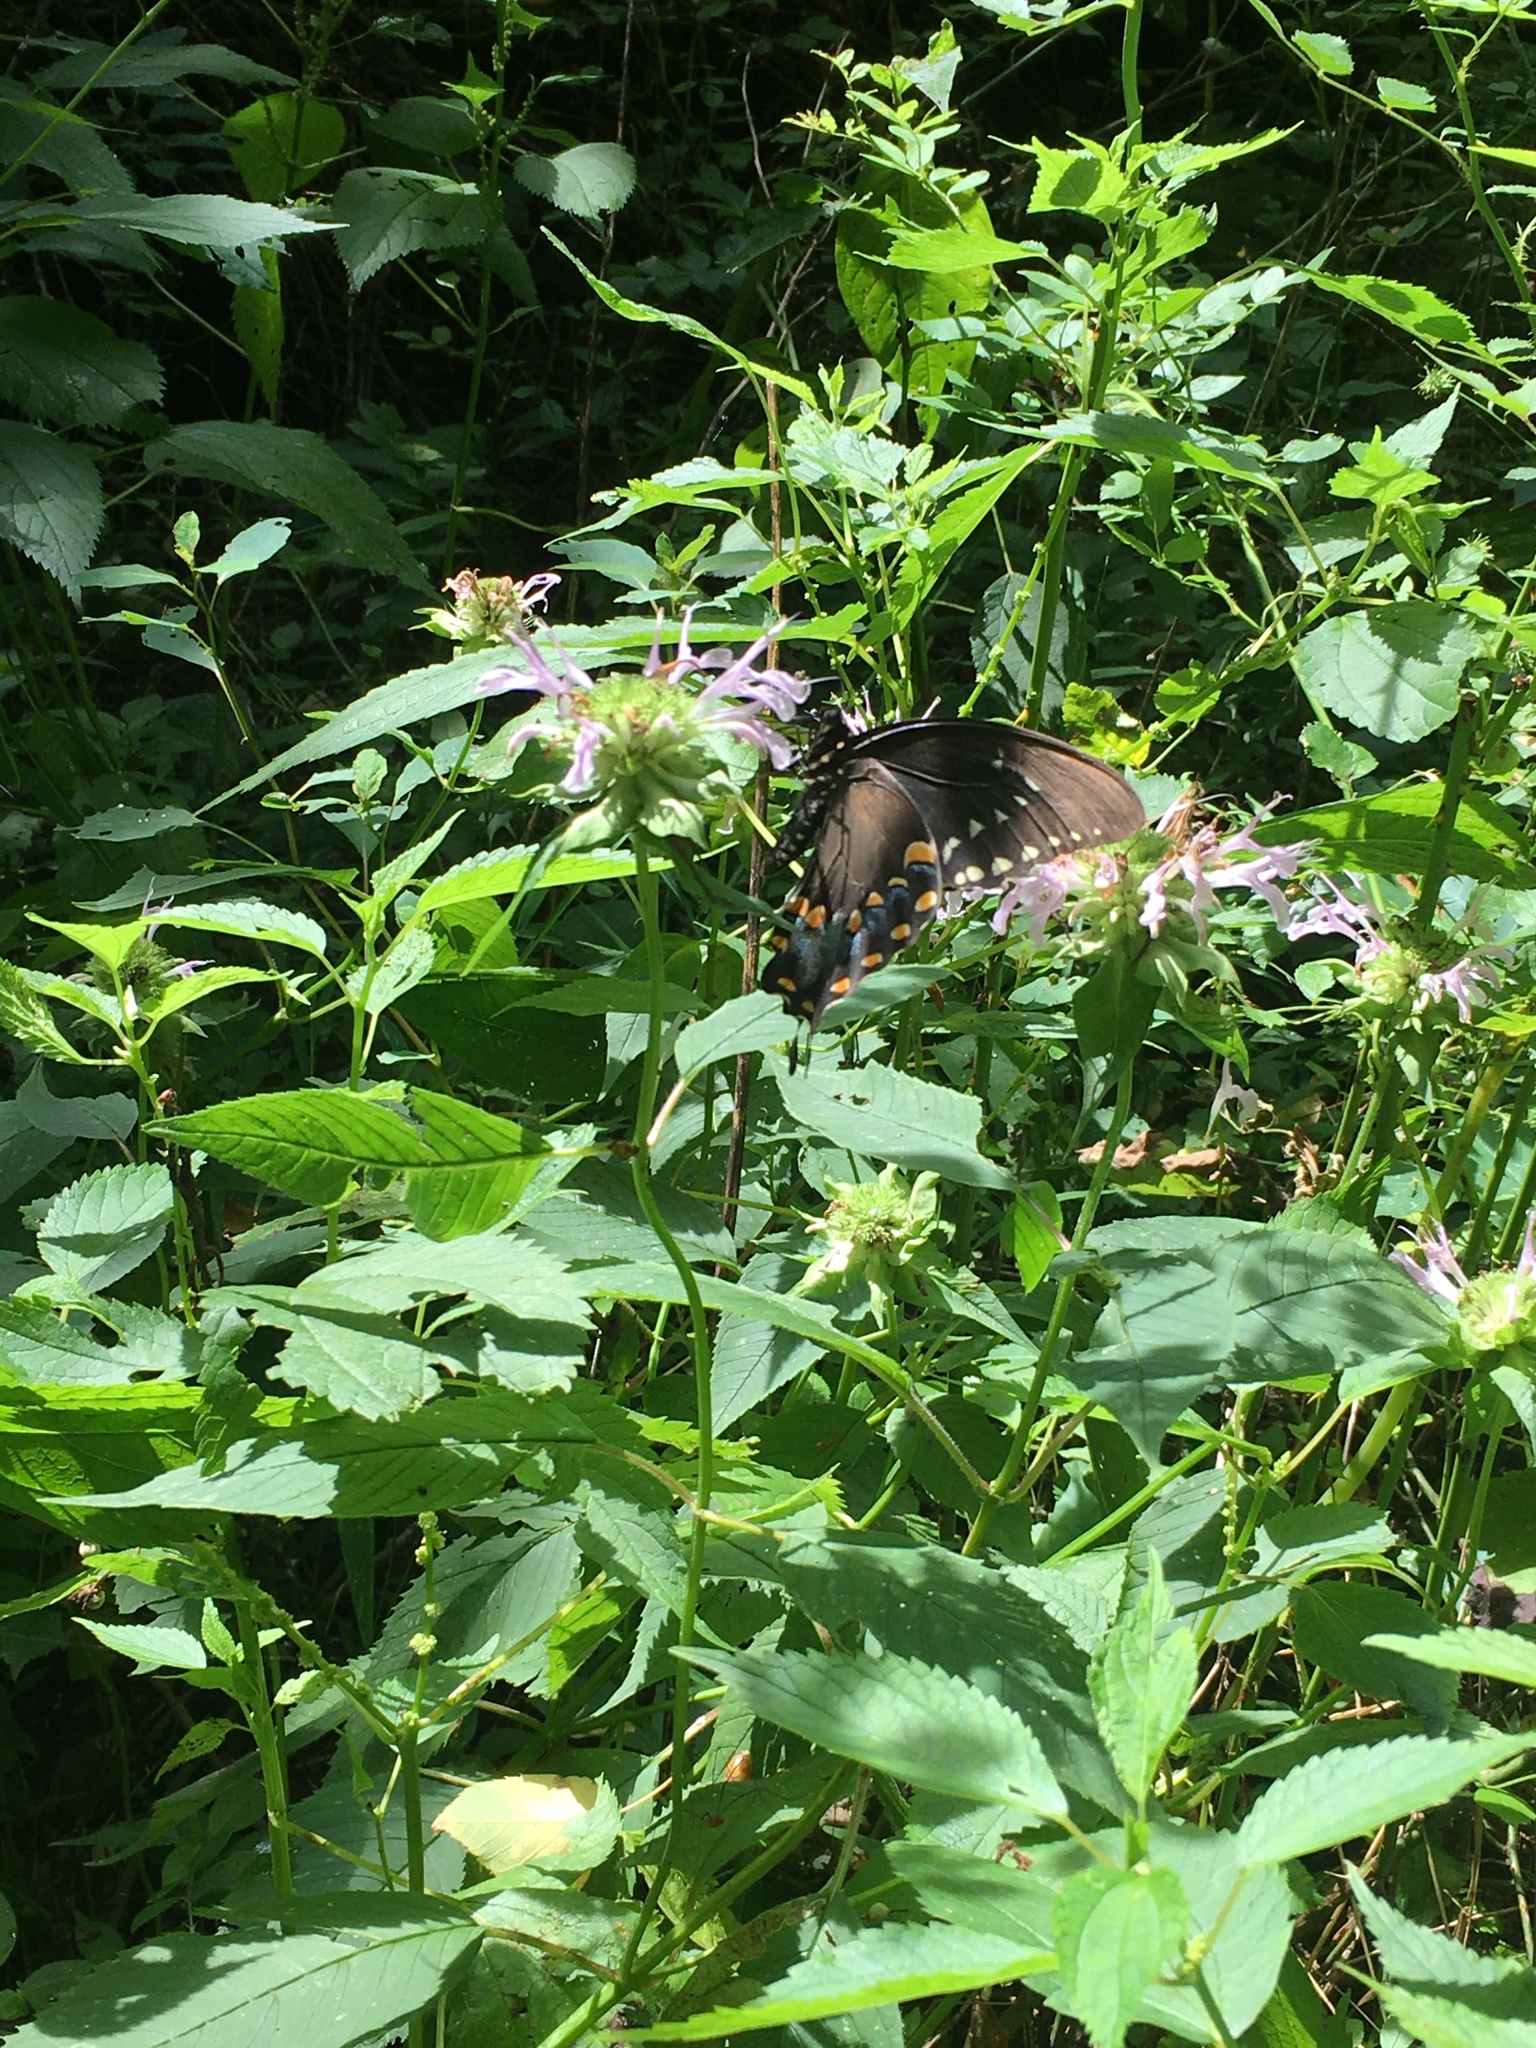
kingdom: Animalia
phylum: Arthropoda
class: Insecta
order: Lepidoptera
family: Papilionidae
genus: Papilio
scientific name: Papilio troilus
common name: Spicebush swallowtail
